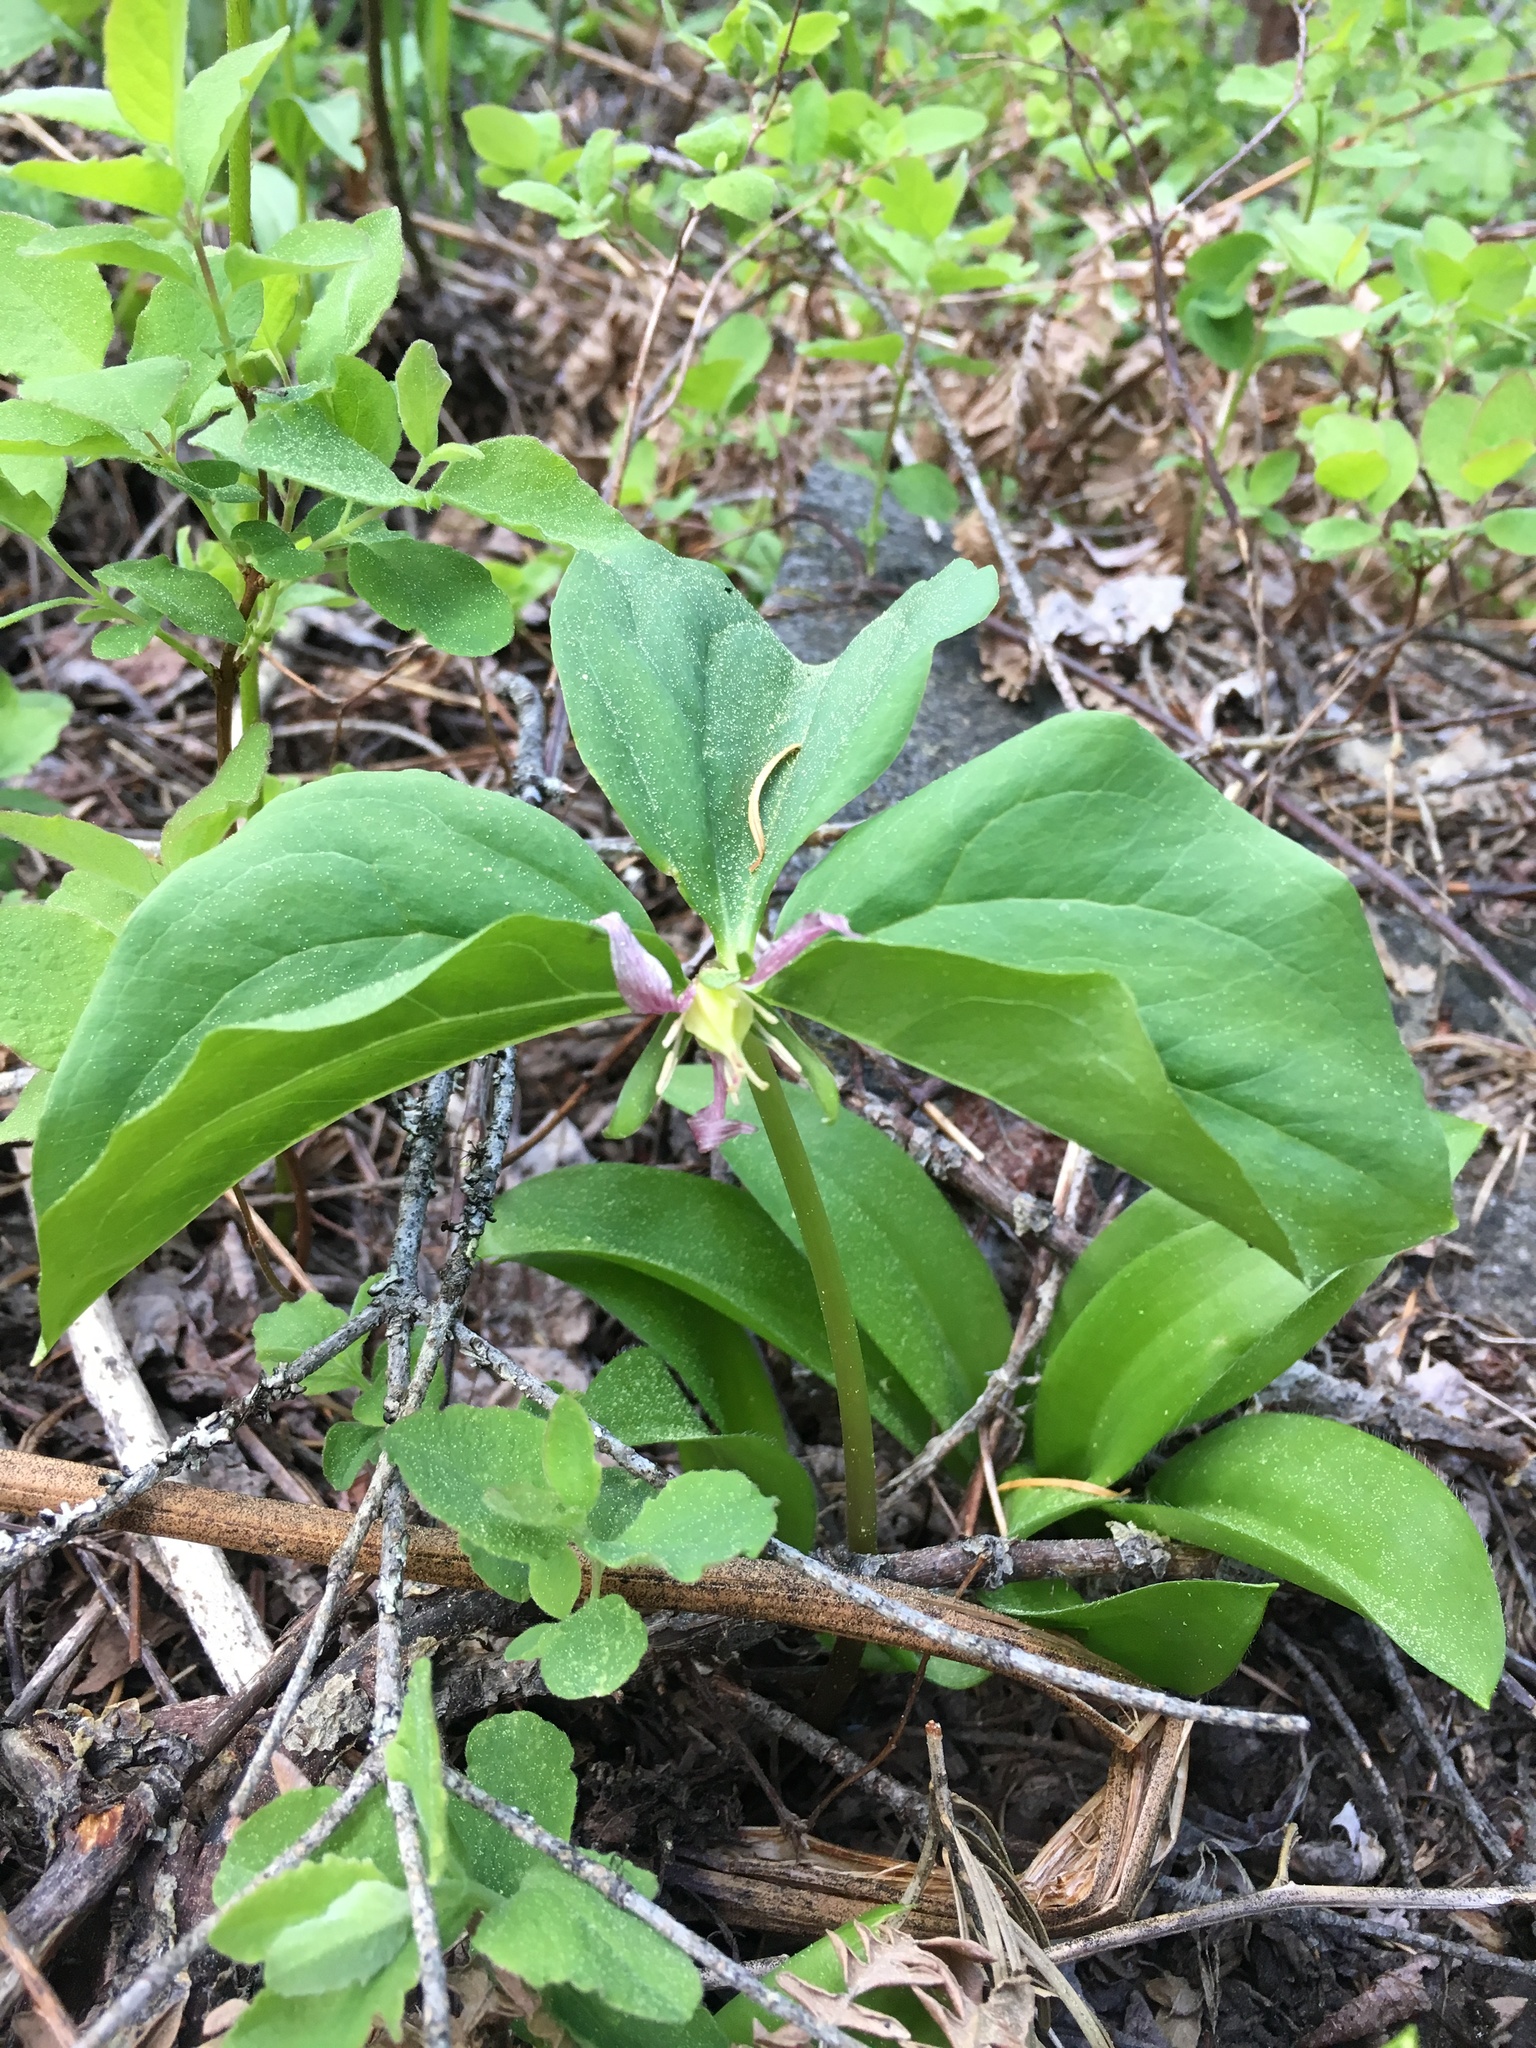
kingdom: Plantae
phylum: Tracheophyta
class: Liliopsida
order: Liliales
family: Melanthiaceae
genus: Trillium
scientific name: Trillium ovatum
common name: Pacific trillium
